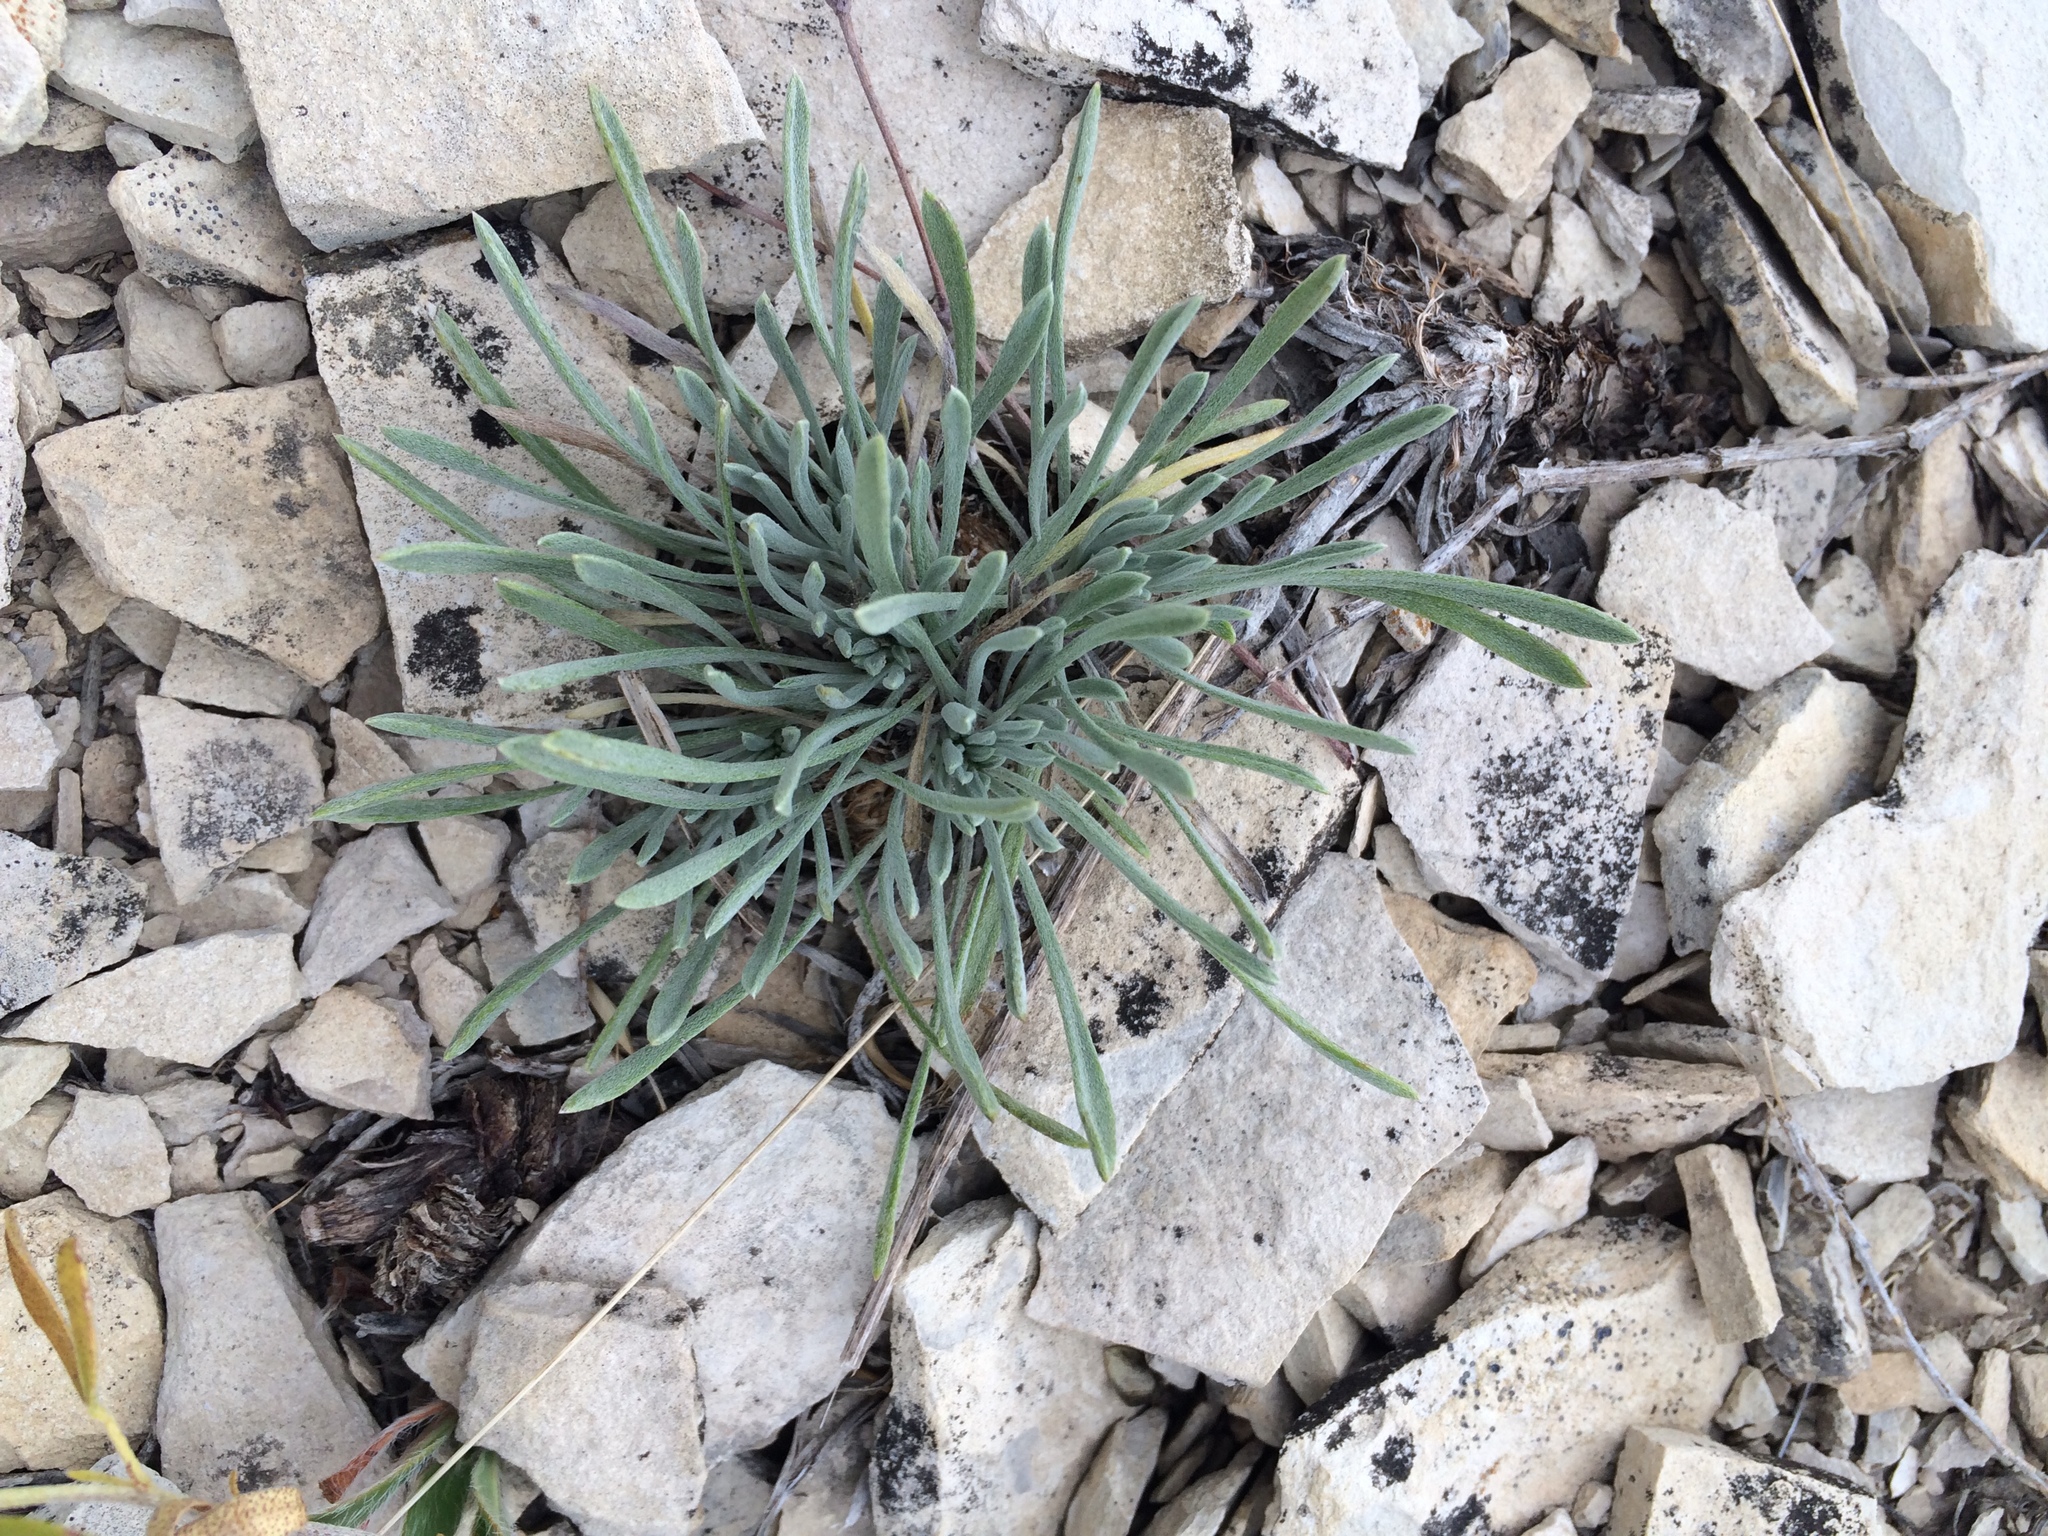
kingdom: Plantae
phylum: Tracheophyta
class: Magnoliopsida
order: Asterales
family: Asteraceae
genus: Townsendia
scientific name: Townsendia hookeri
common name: Hooker's townsend daisy
